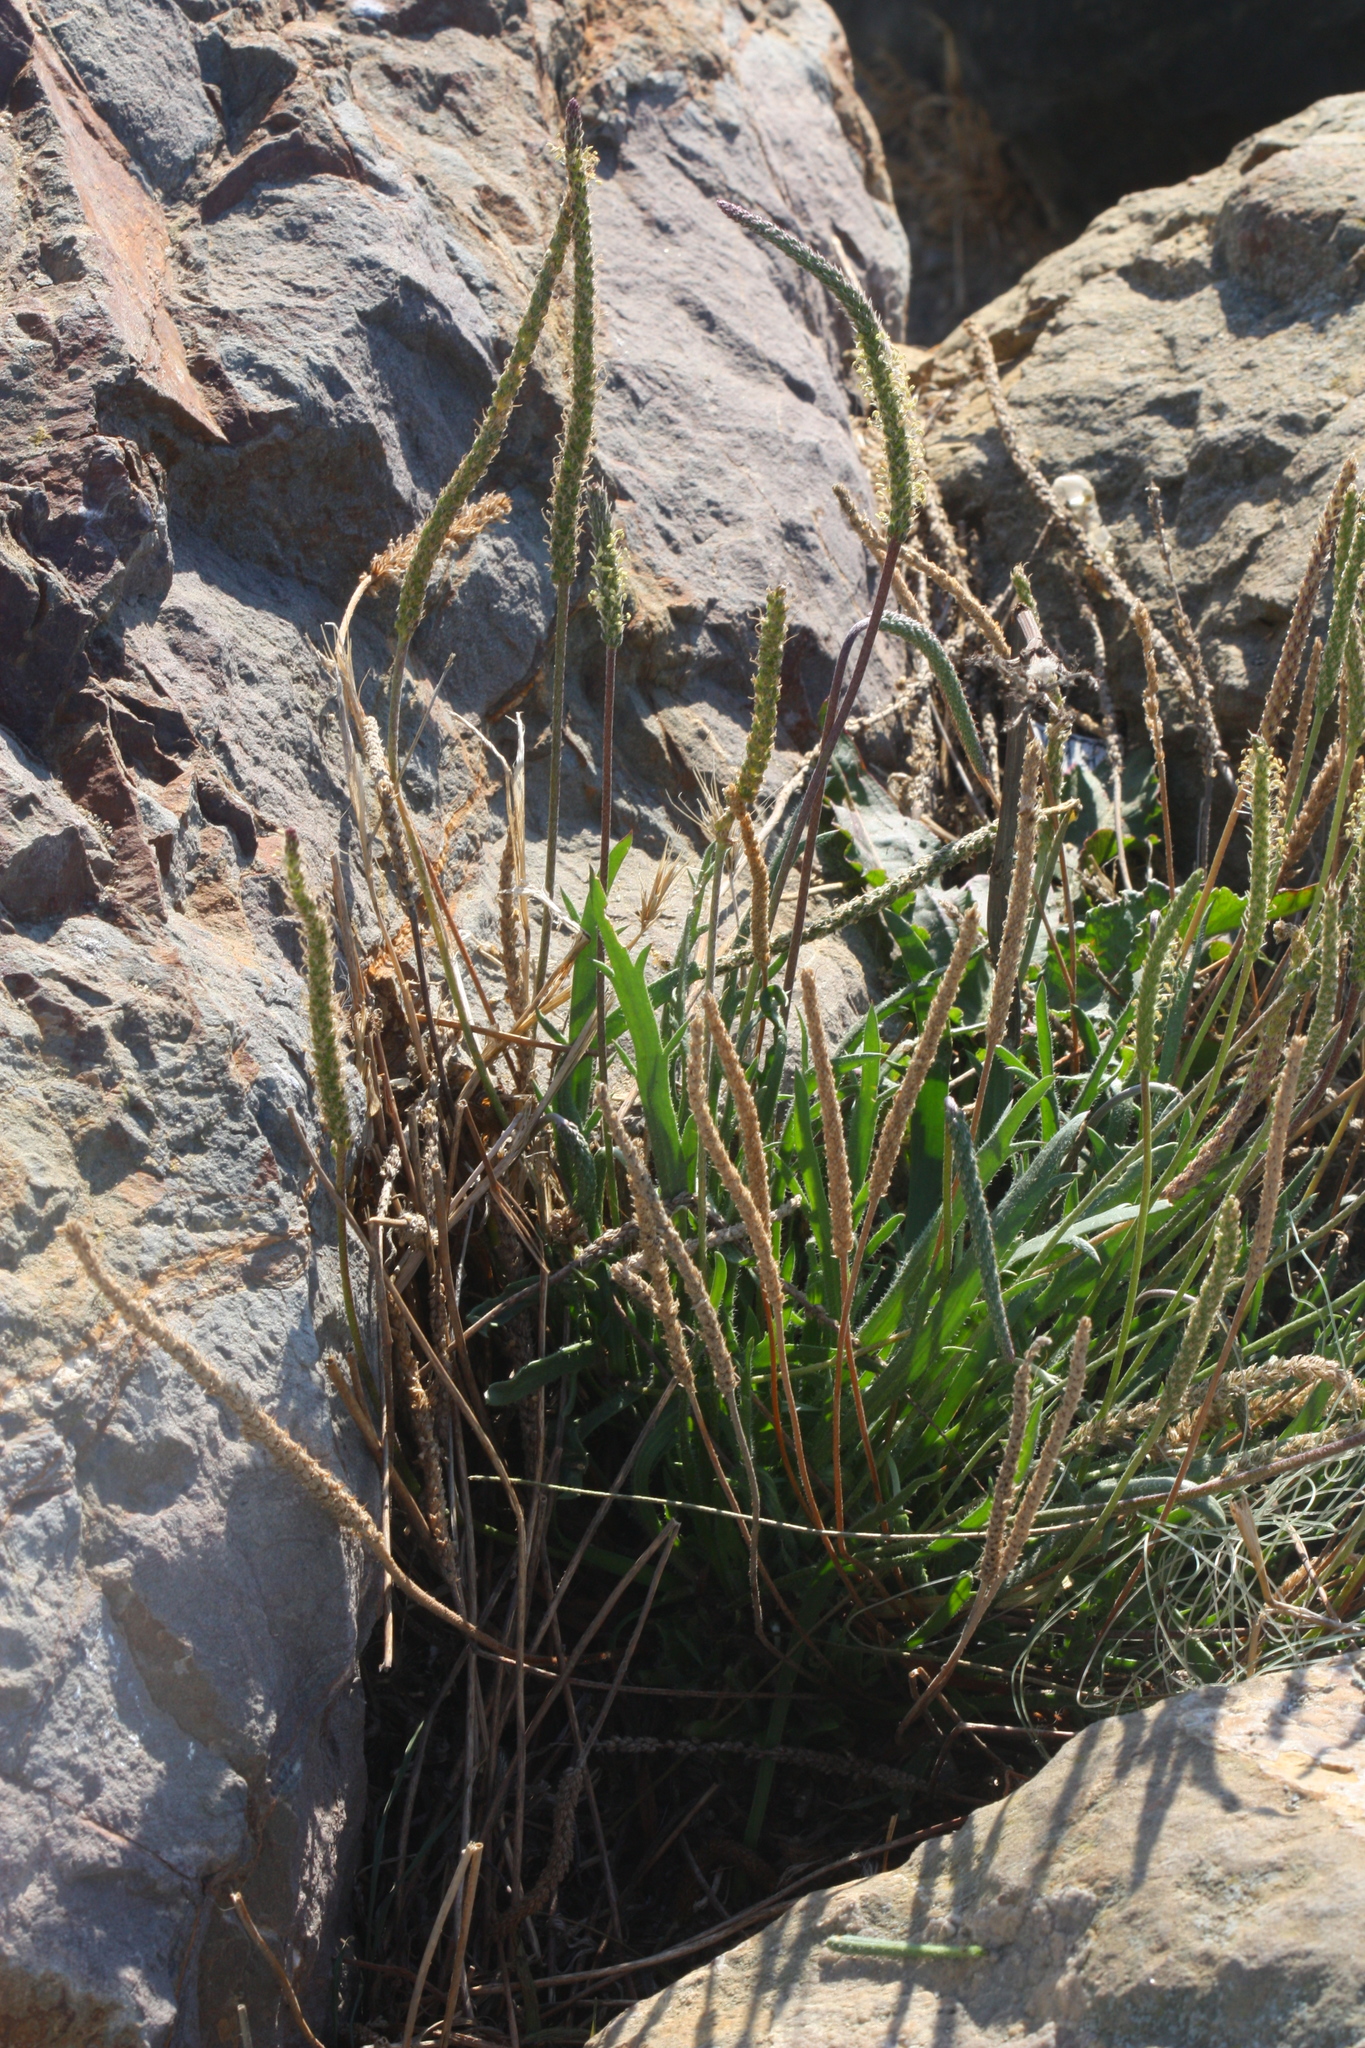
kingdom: Plantae
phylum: Tracheophyta
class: Magnoliopsida
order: Lamiales
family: Plantaginaceae
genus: Plantago
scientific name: Plantago coronopus
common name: Buck's-horn plantain
